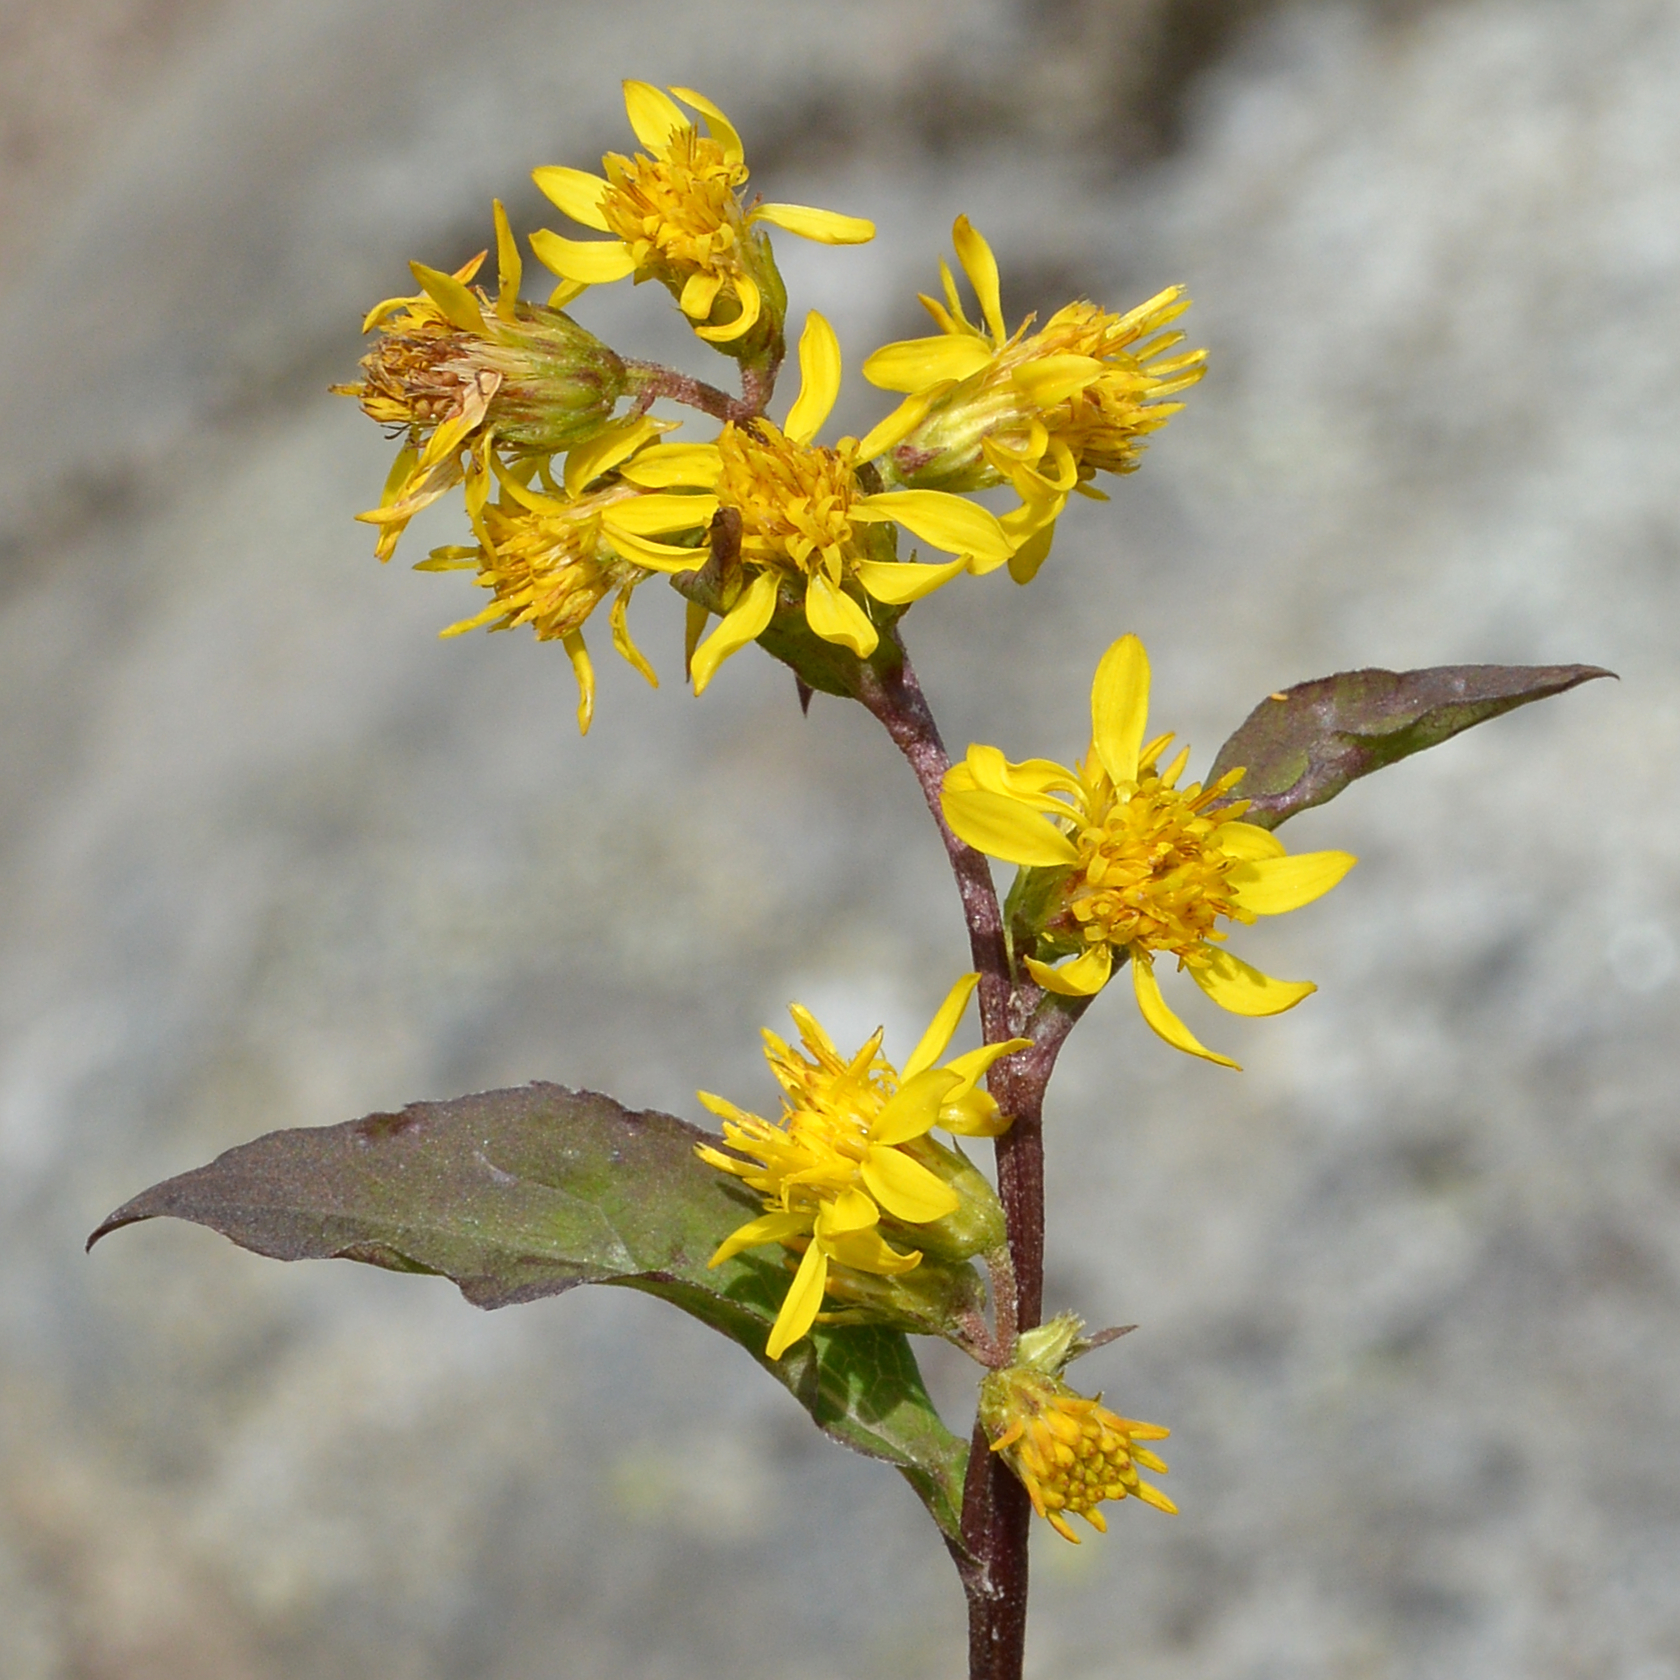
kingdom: Plantae
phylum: Tracheophyta
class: Magnoliopsida
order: Asterales
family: Asteraceae
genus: Solidago
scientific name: Solidago virgaurea
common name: Goldenrod
